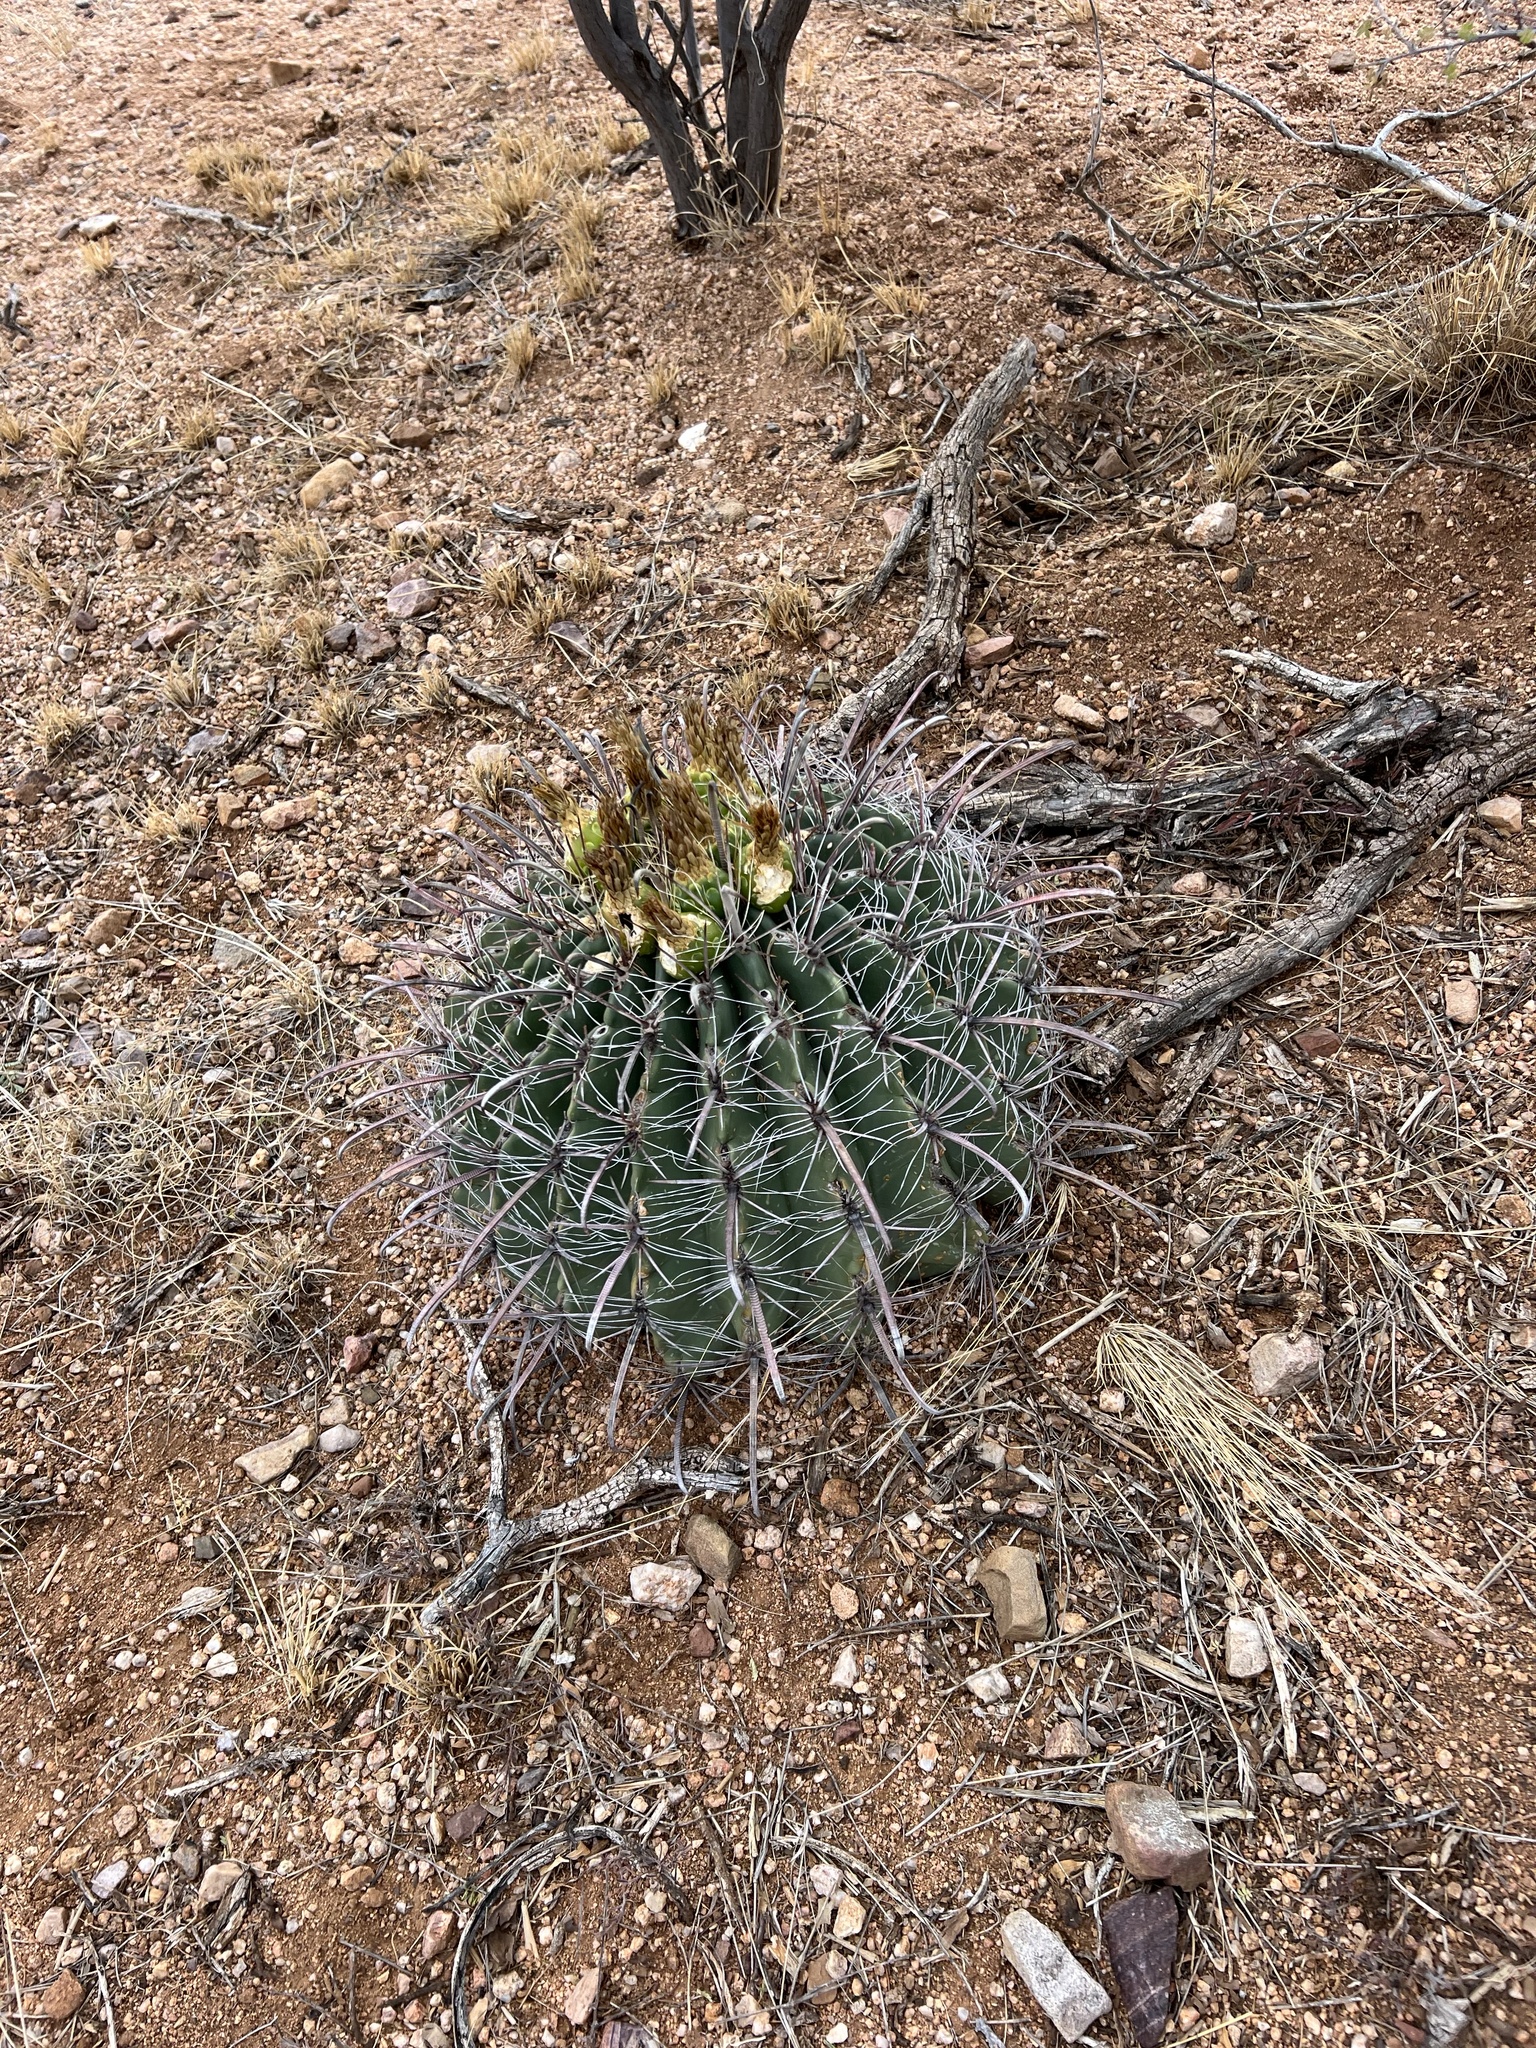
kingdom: Plantae
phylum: Tracheophyta
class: Magnoliopsida
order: Caryophyllales
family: Cactaceae
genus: Ferocactus
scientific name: Ferocactus wislizeni
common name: Candy barrel cactus
